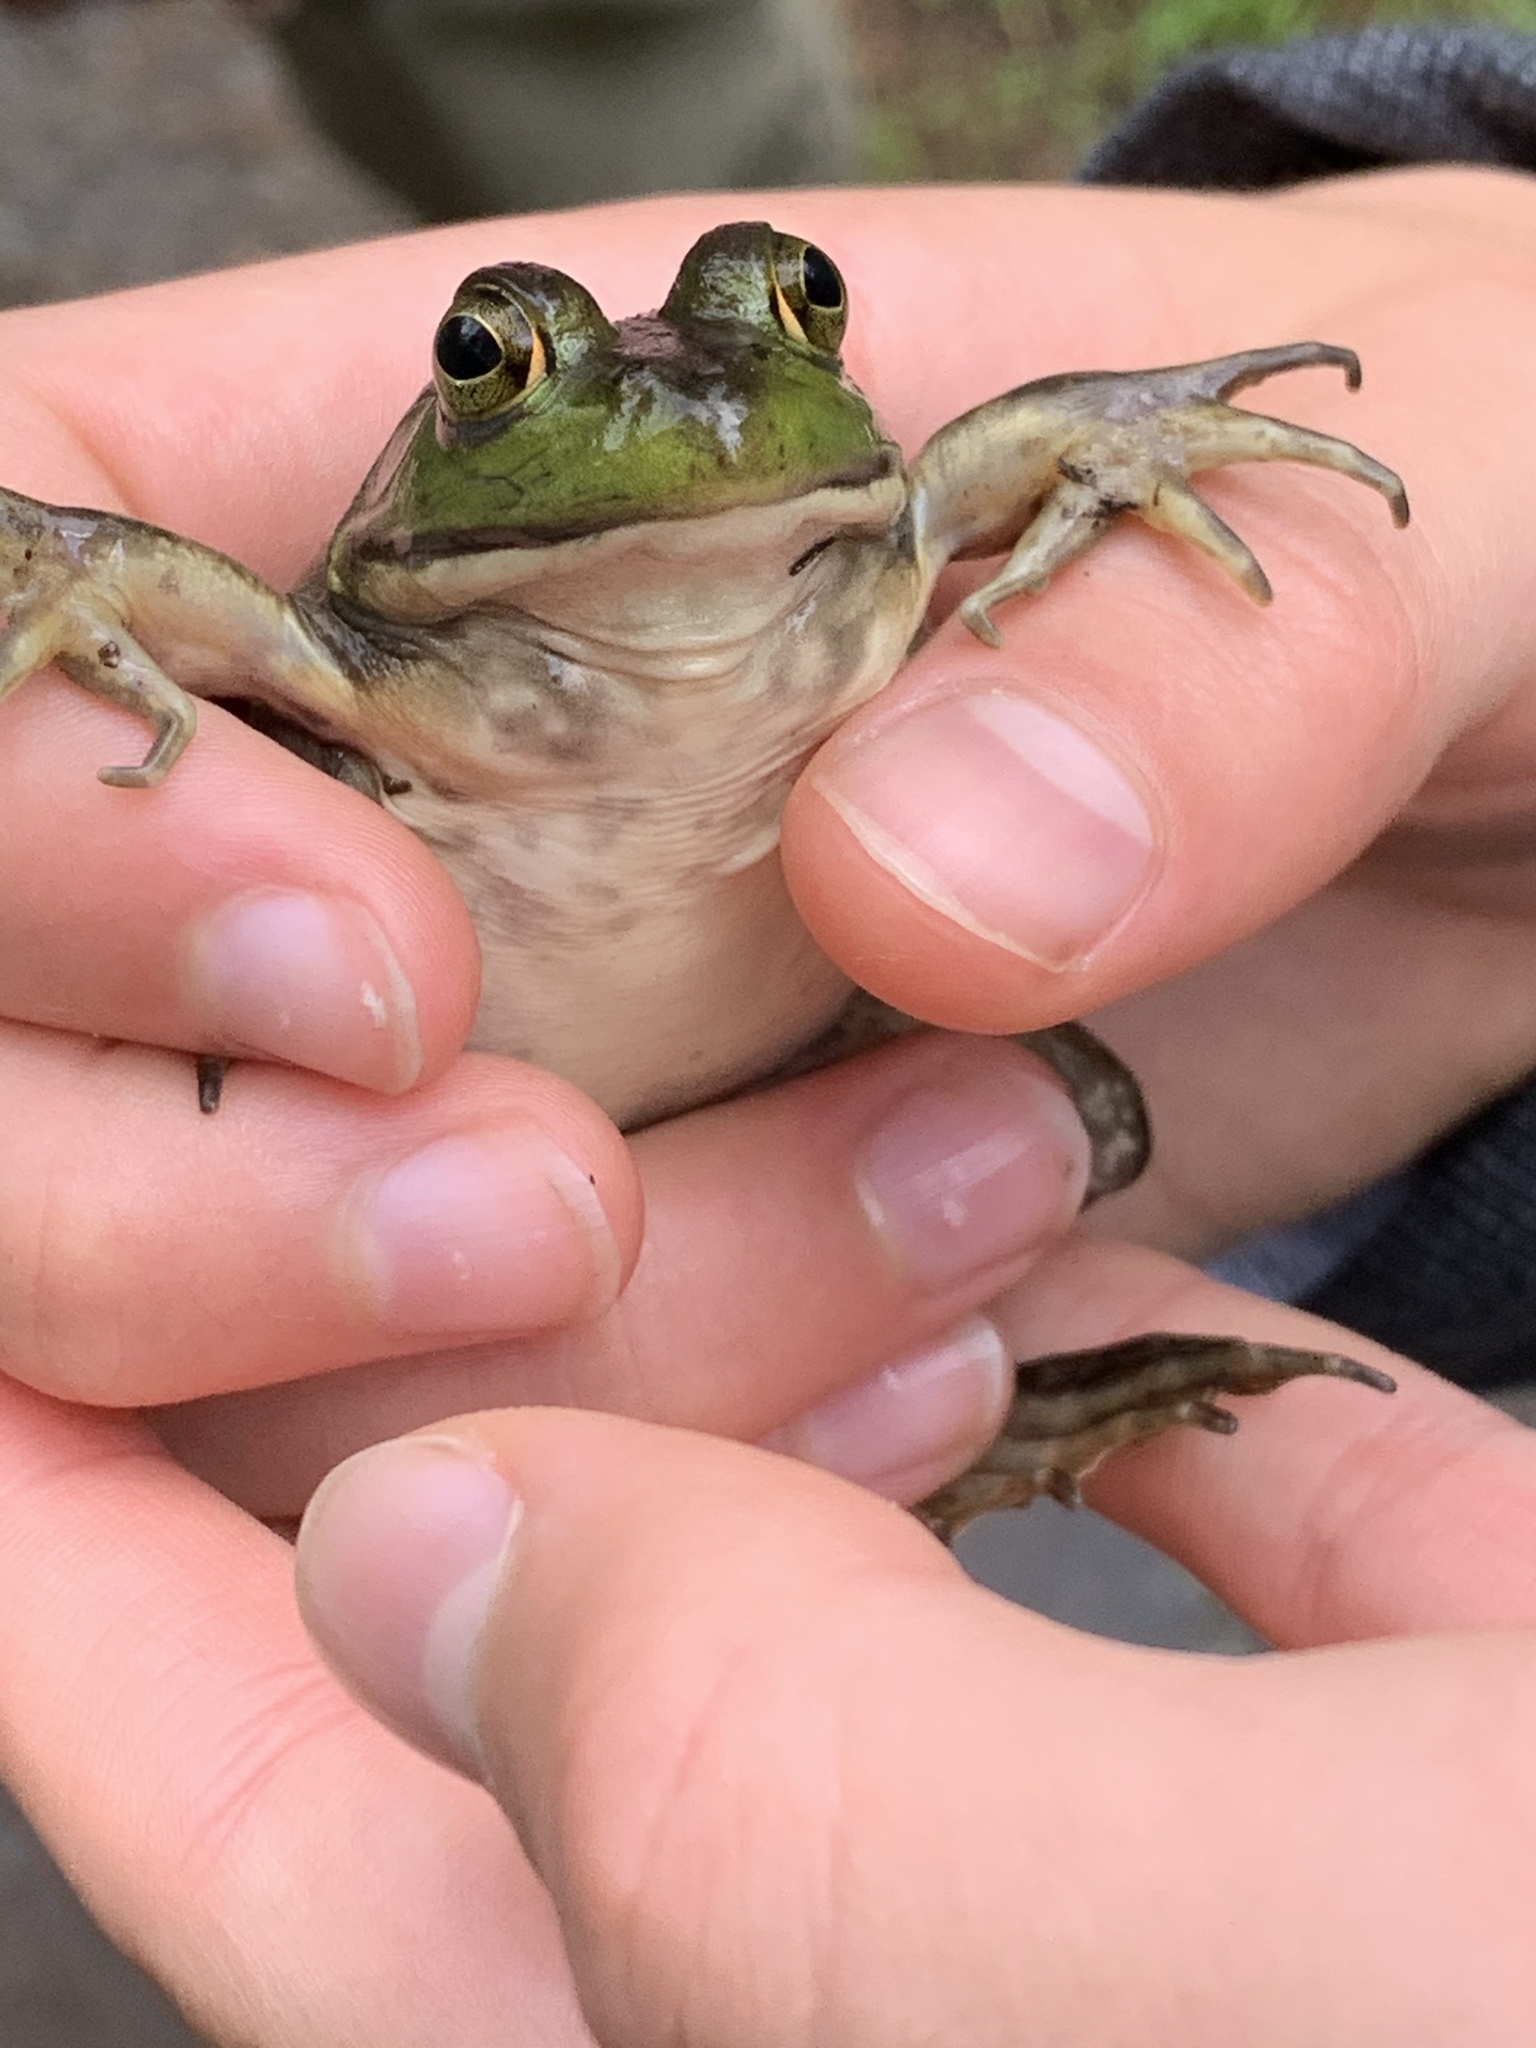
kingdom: Animalia
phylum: Chordata
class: Amphibia
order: Anura
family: Ranidae
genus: Lithobates
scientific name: Lithobates catesbeianus
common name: American bullfrog
